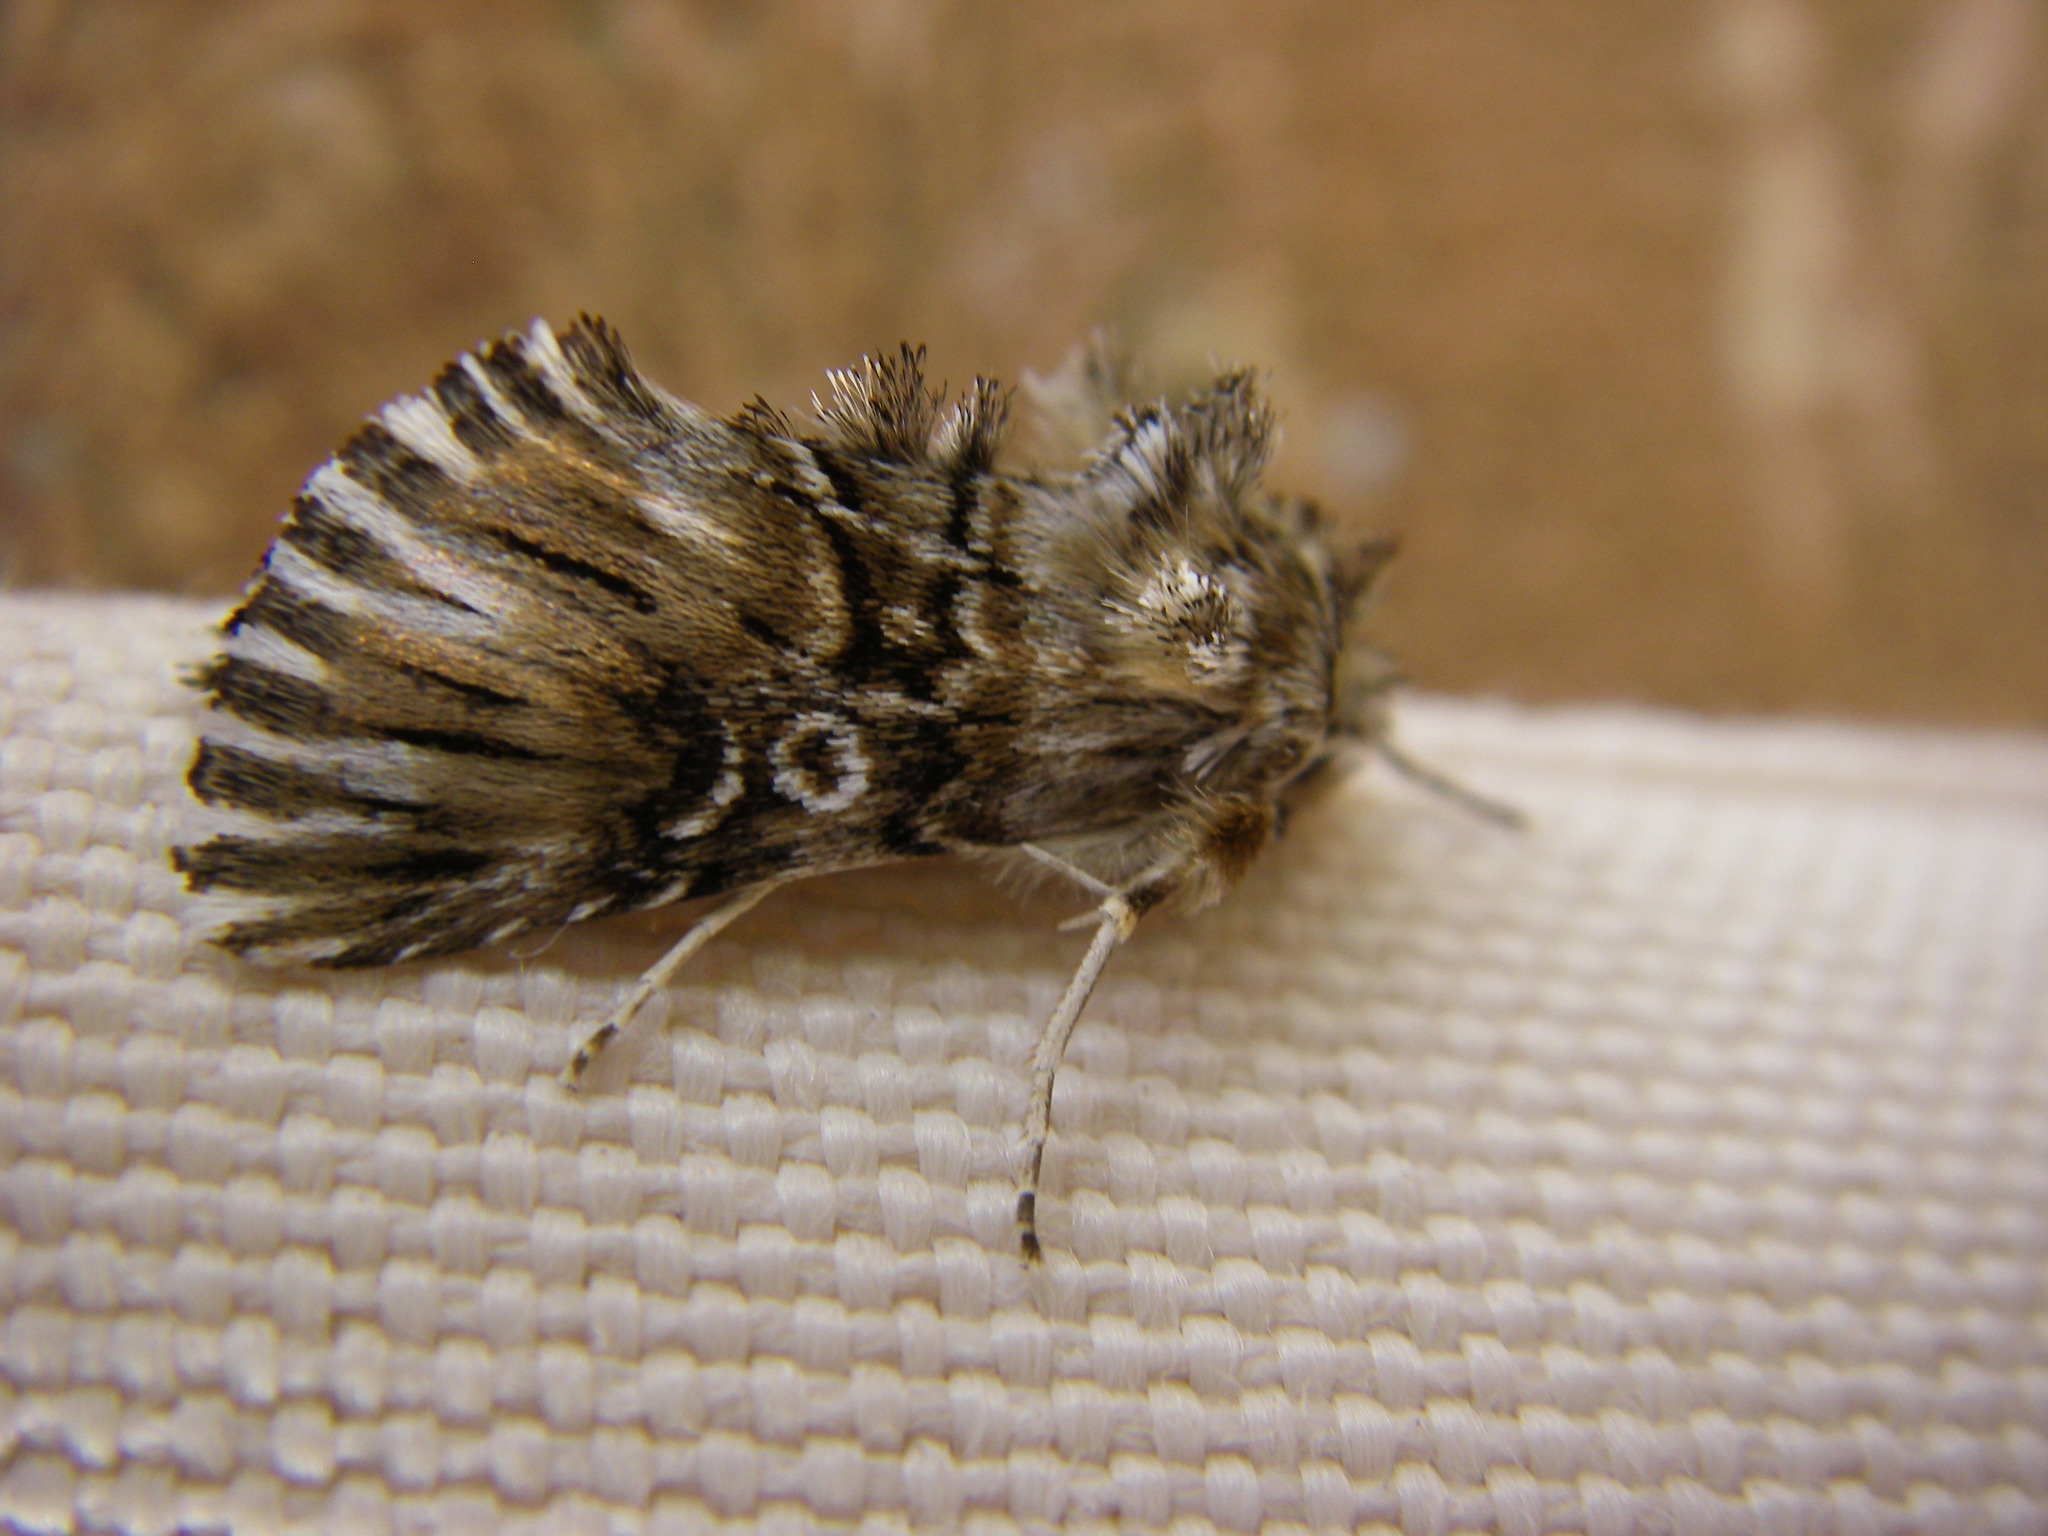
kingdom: Animalia
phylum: Arthropoda
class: Insecta
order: Lepidoptera
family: Noctuidae
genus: Omphalophana
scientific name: Omphalophana antirrhinii
